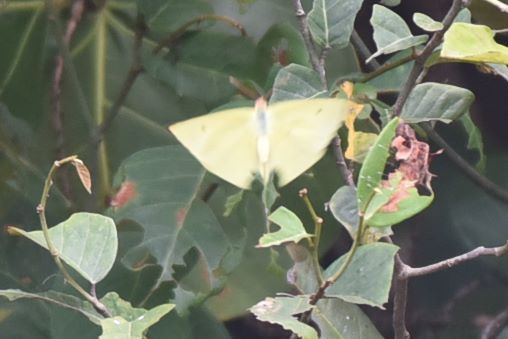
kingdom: Animalia
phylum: Arthropoda
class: Insecta
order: Lepidoptera
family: Pieridae
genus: Aphrissa
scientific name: Aphrissa statira
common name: Statira sulphur
